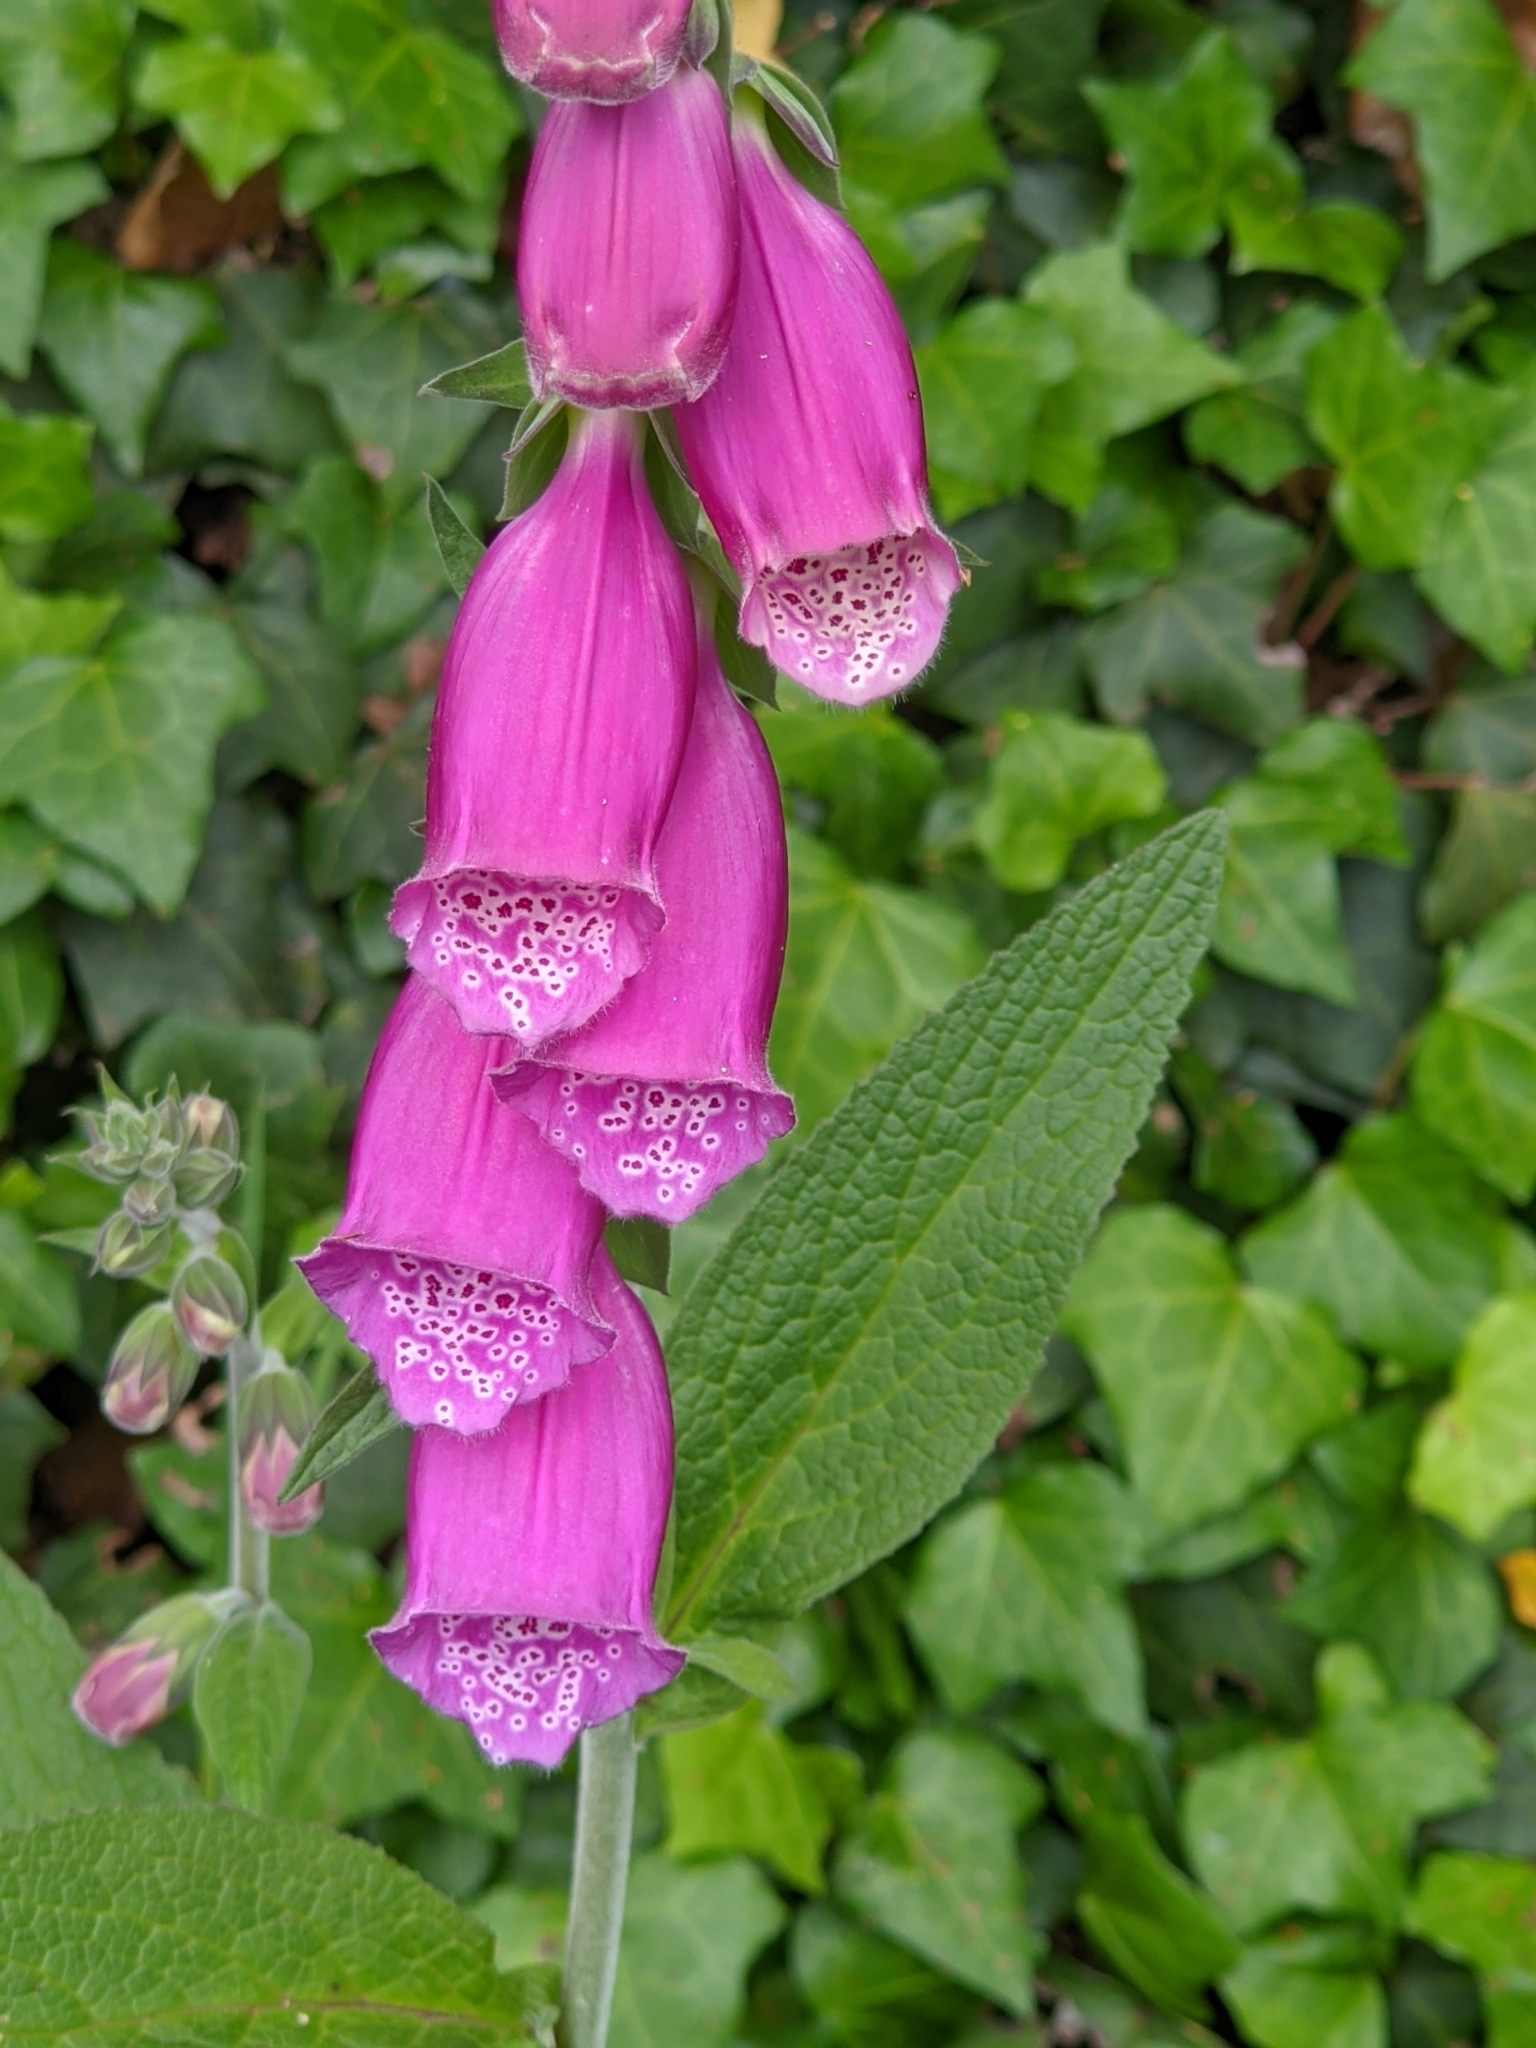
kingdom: Plantae
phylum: Tracheophyta
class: Magnoliopsida
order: Lamiales
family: Plantaginaceae
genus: Digitalis
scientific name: Digitalis purpurea
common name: Foxglove
